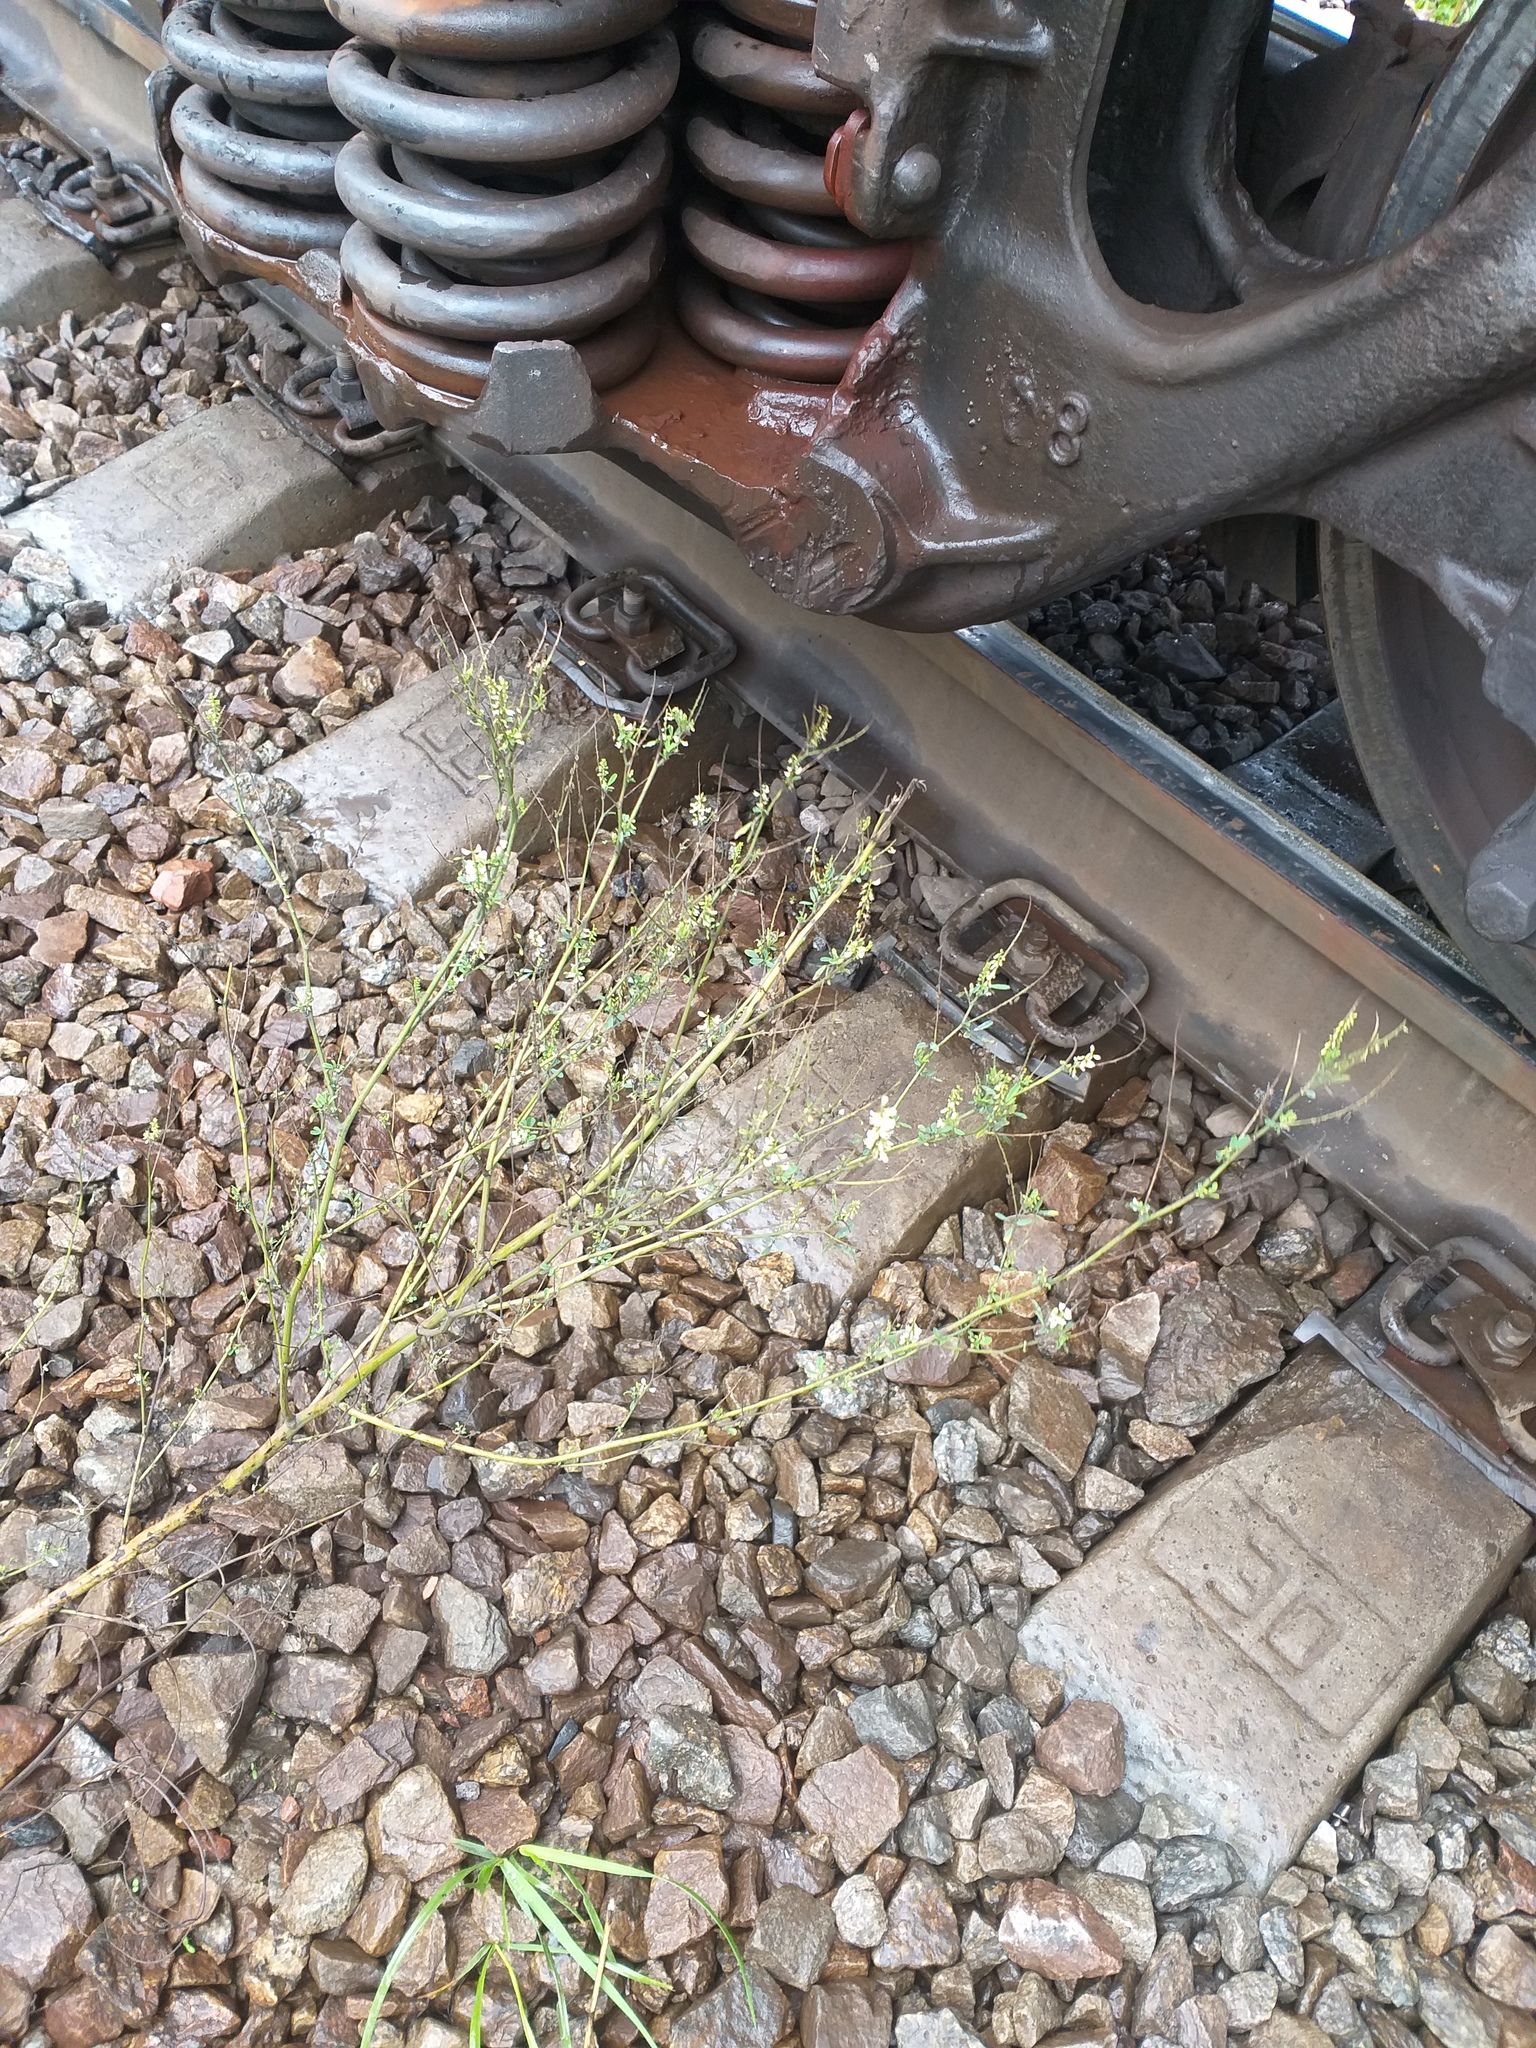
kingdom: Plantae
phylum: Tracheophyta
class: Magnoliopsida
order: Fabales
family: Fabaceae
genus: Melilotus
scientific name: Melilotus albus
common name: White melilot
